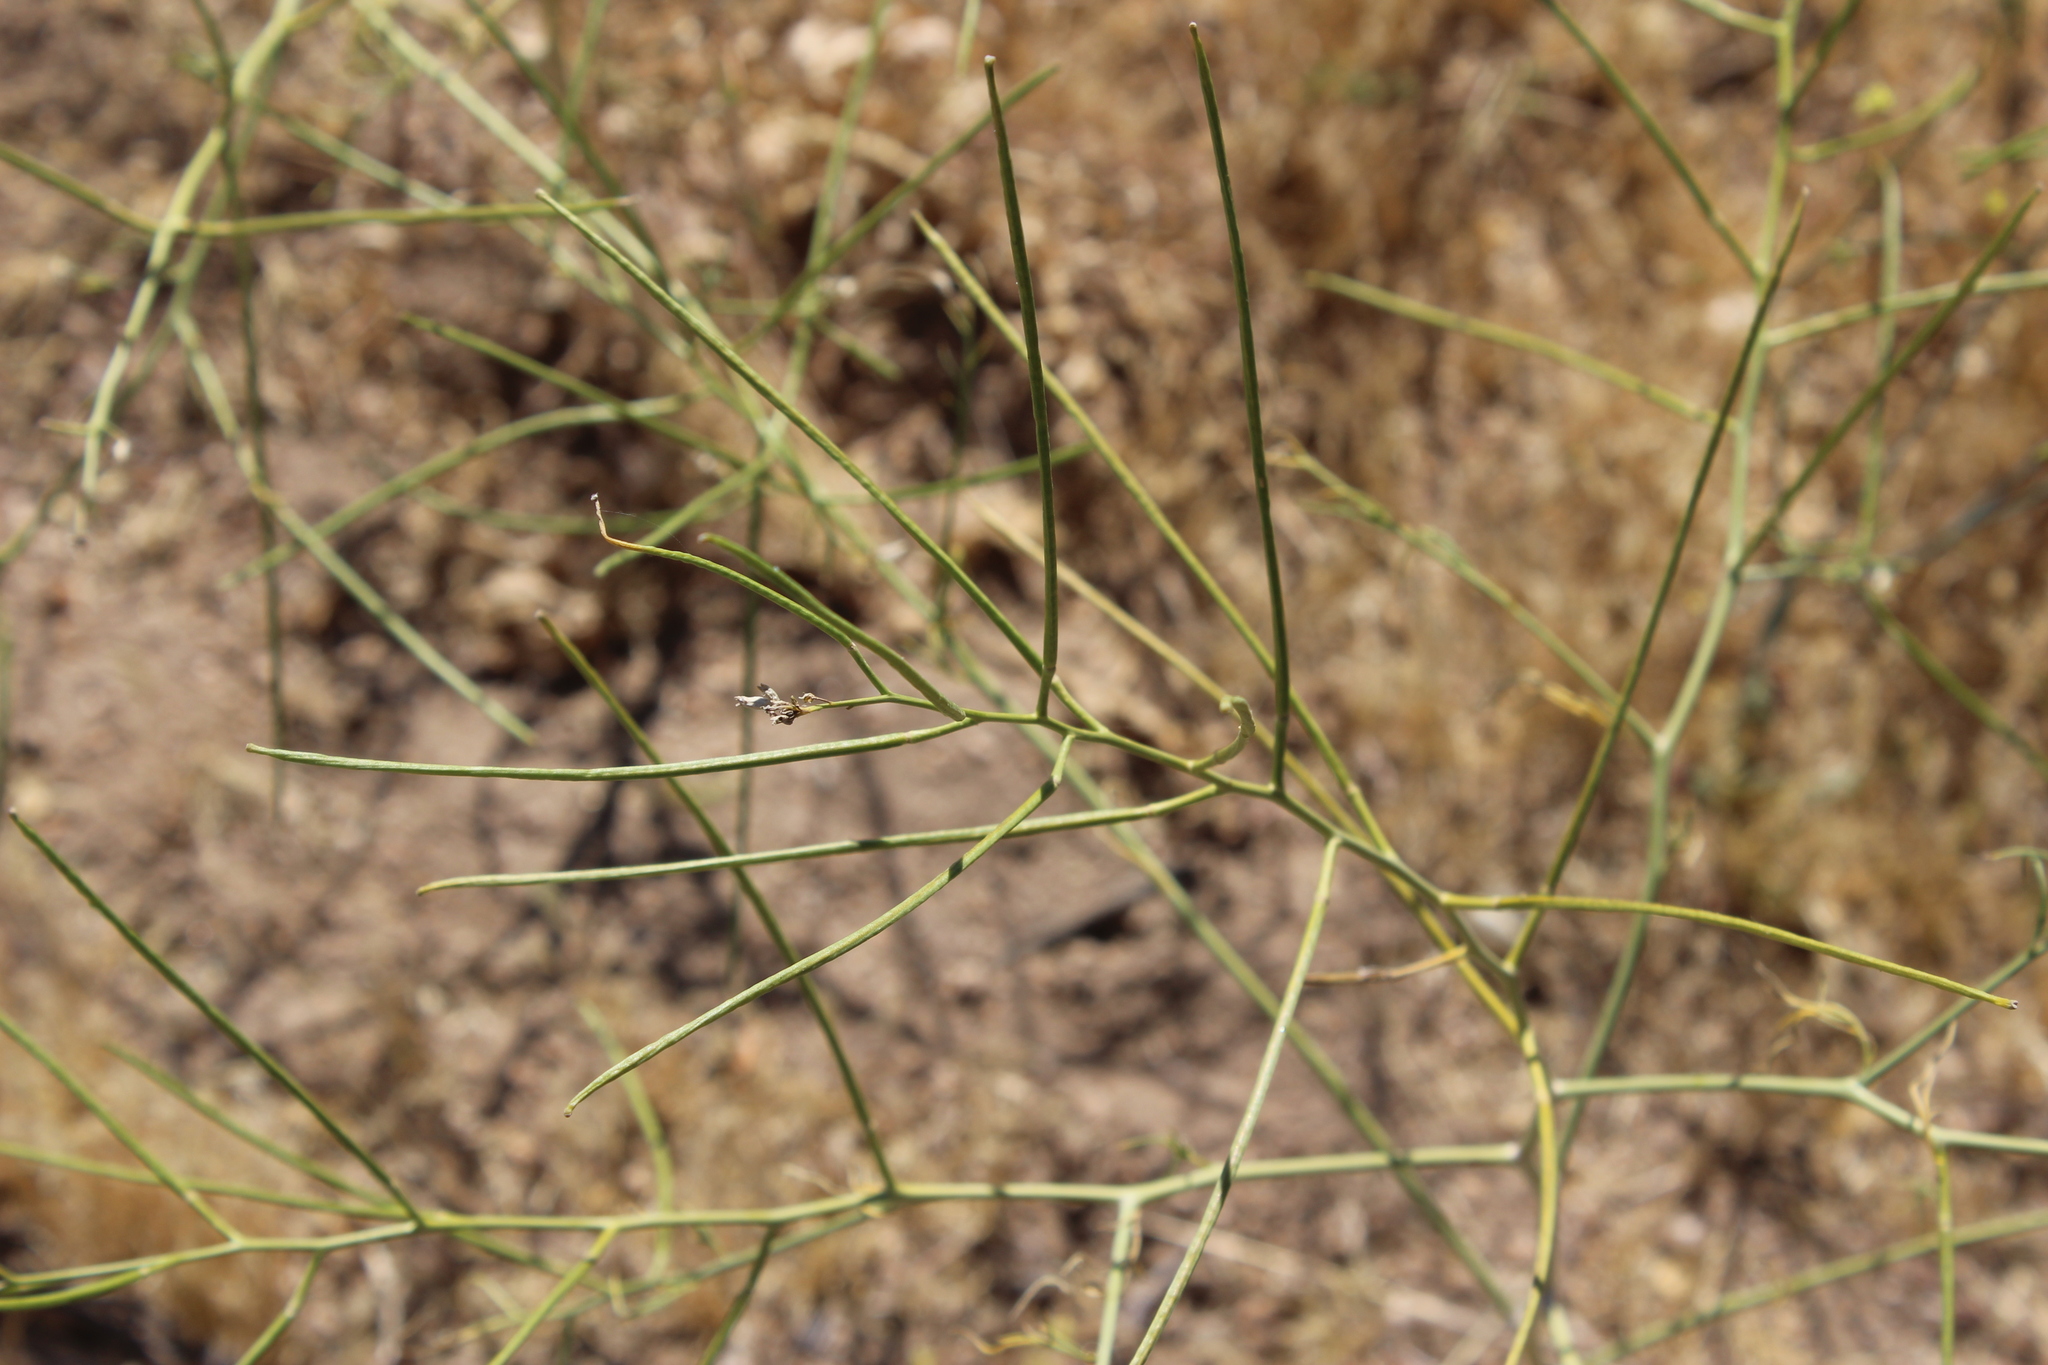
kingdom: Plantae
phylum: Tracheophyta
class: Magnoliopsida
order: Brassicales
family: Brassicaceae
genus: Brassica
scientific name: Brassica tournefortii
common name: Pale cabbage
